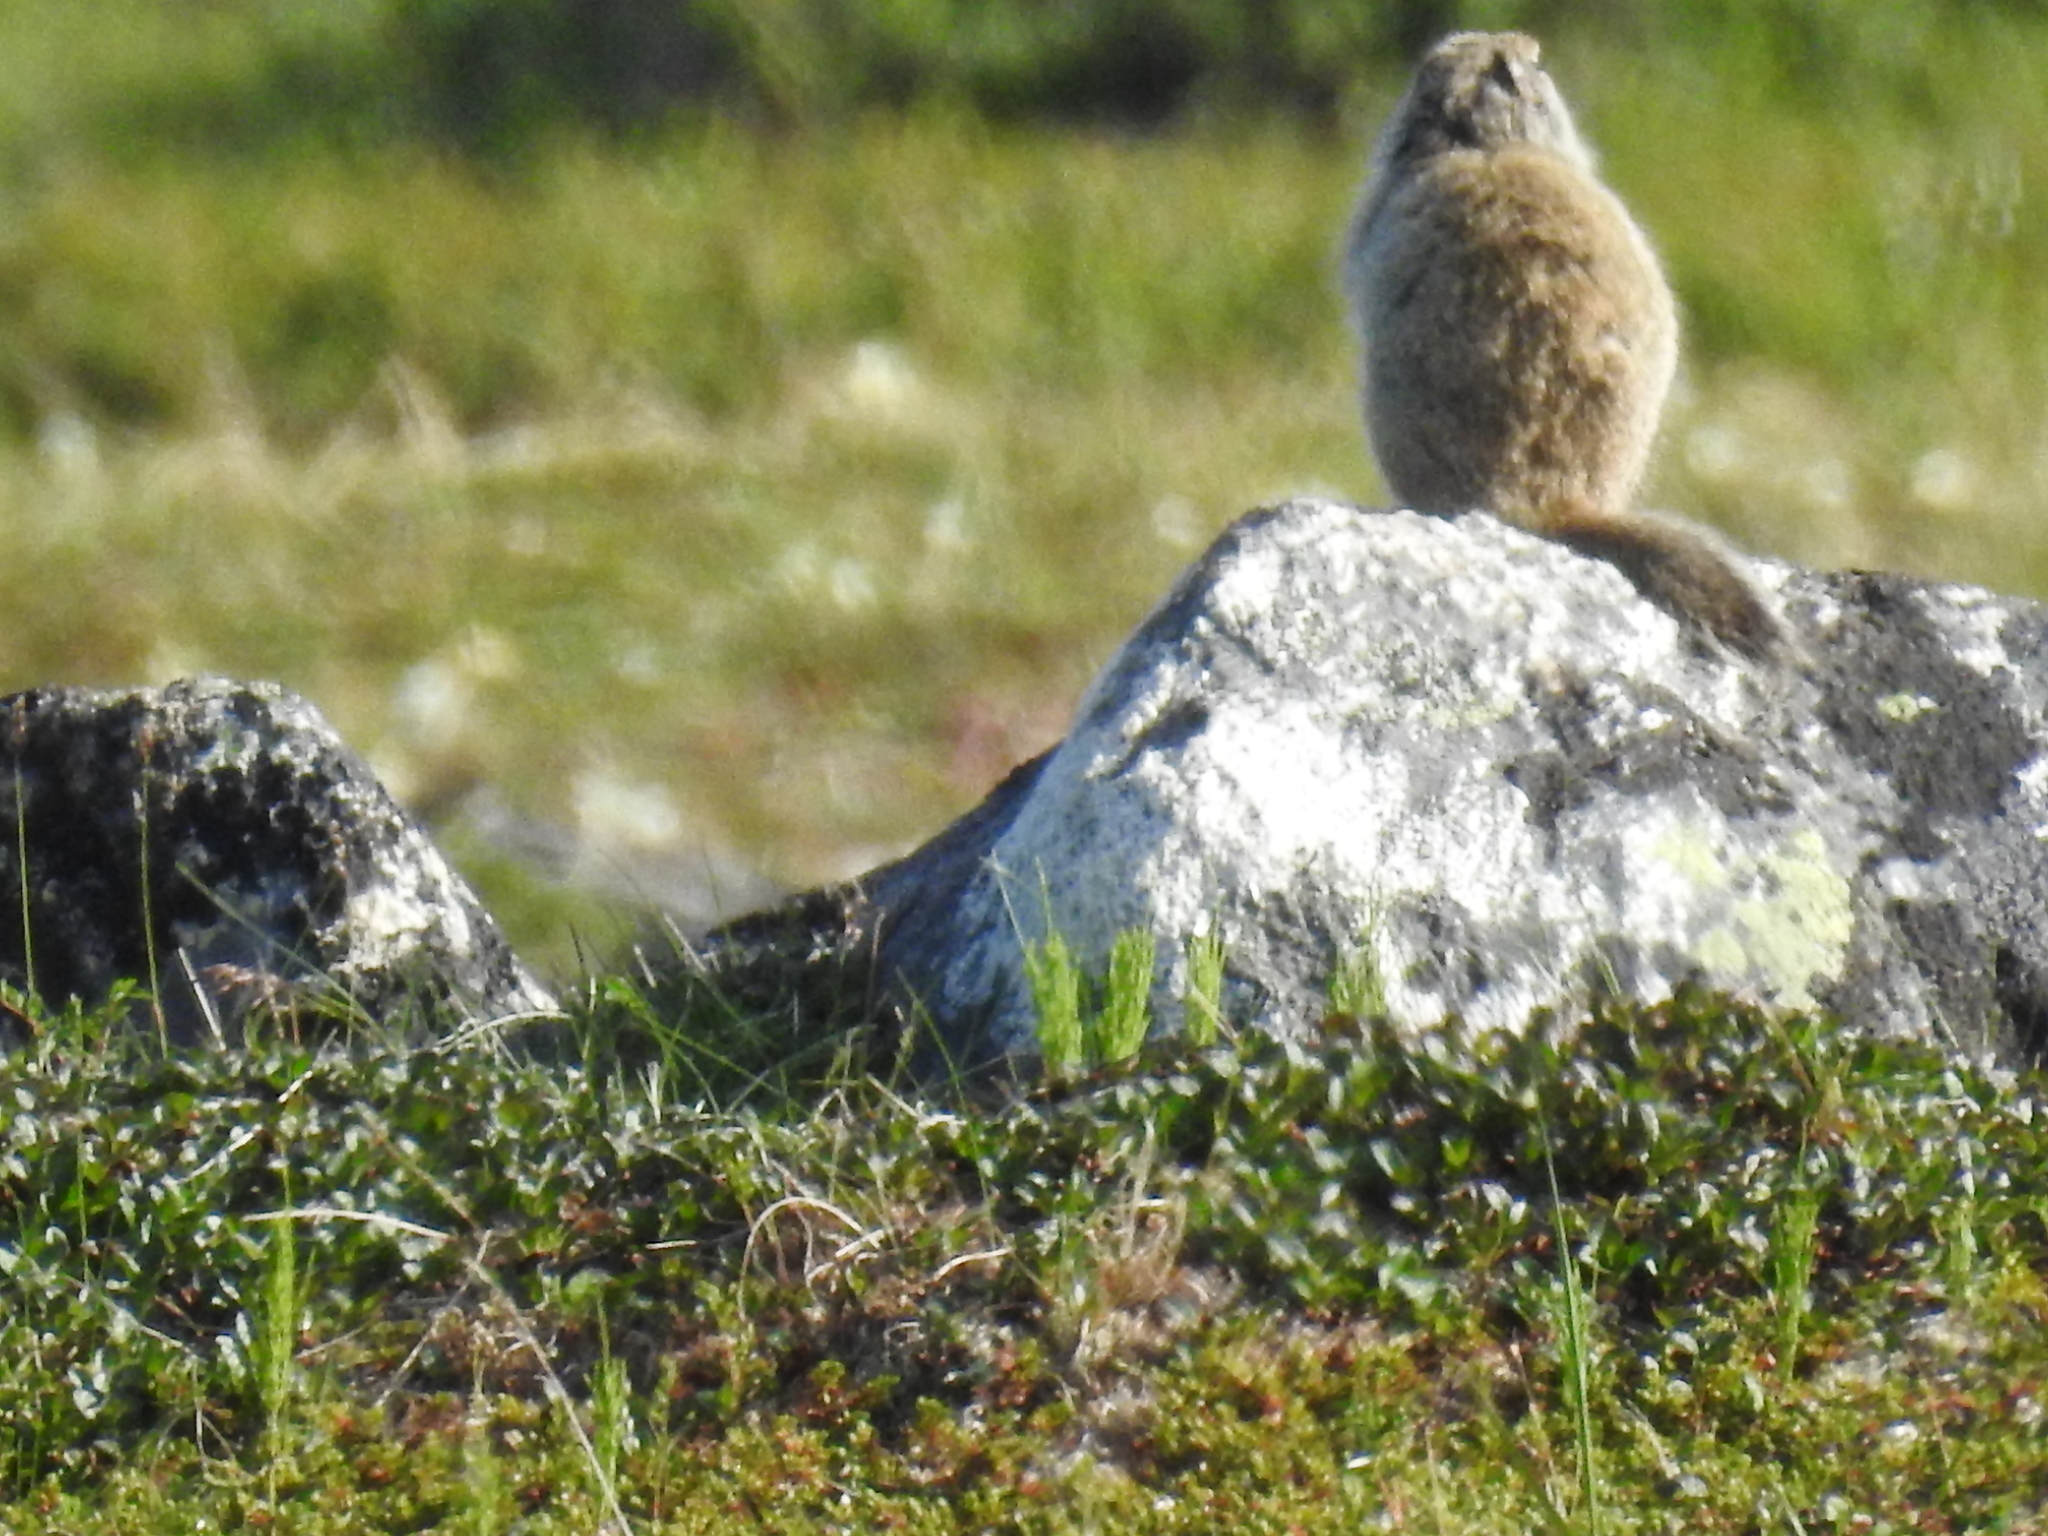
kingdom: Animalia
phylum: Chordata
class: Mammalia
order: Rodentia
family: Sciuridae
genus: Urocitellus
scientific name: Urocitellus parryii
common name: Arctic ground squirrel
